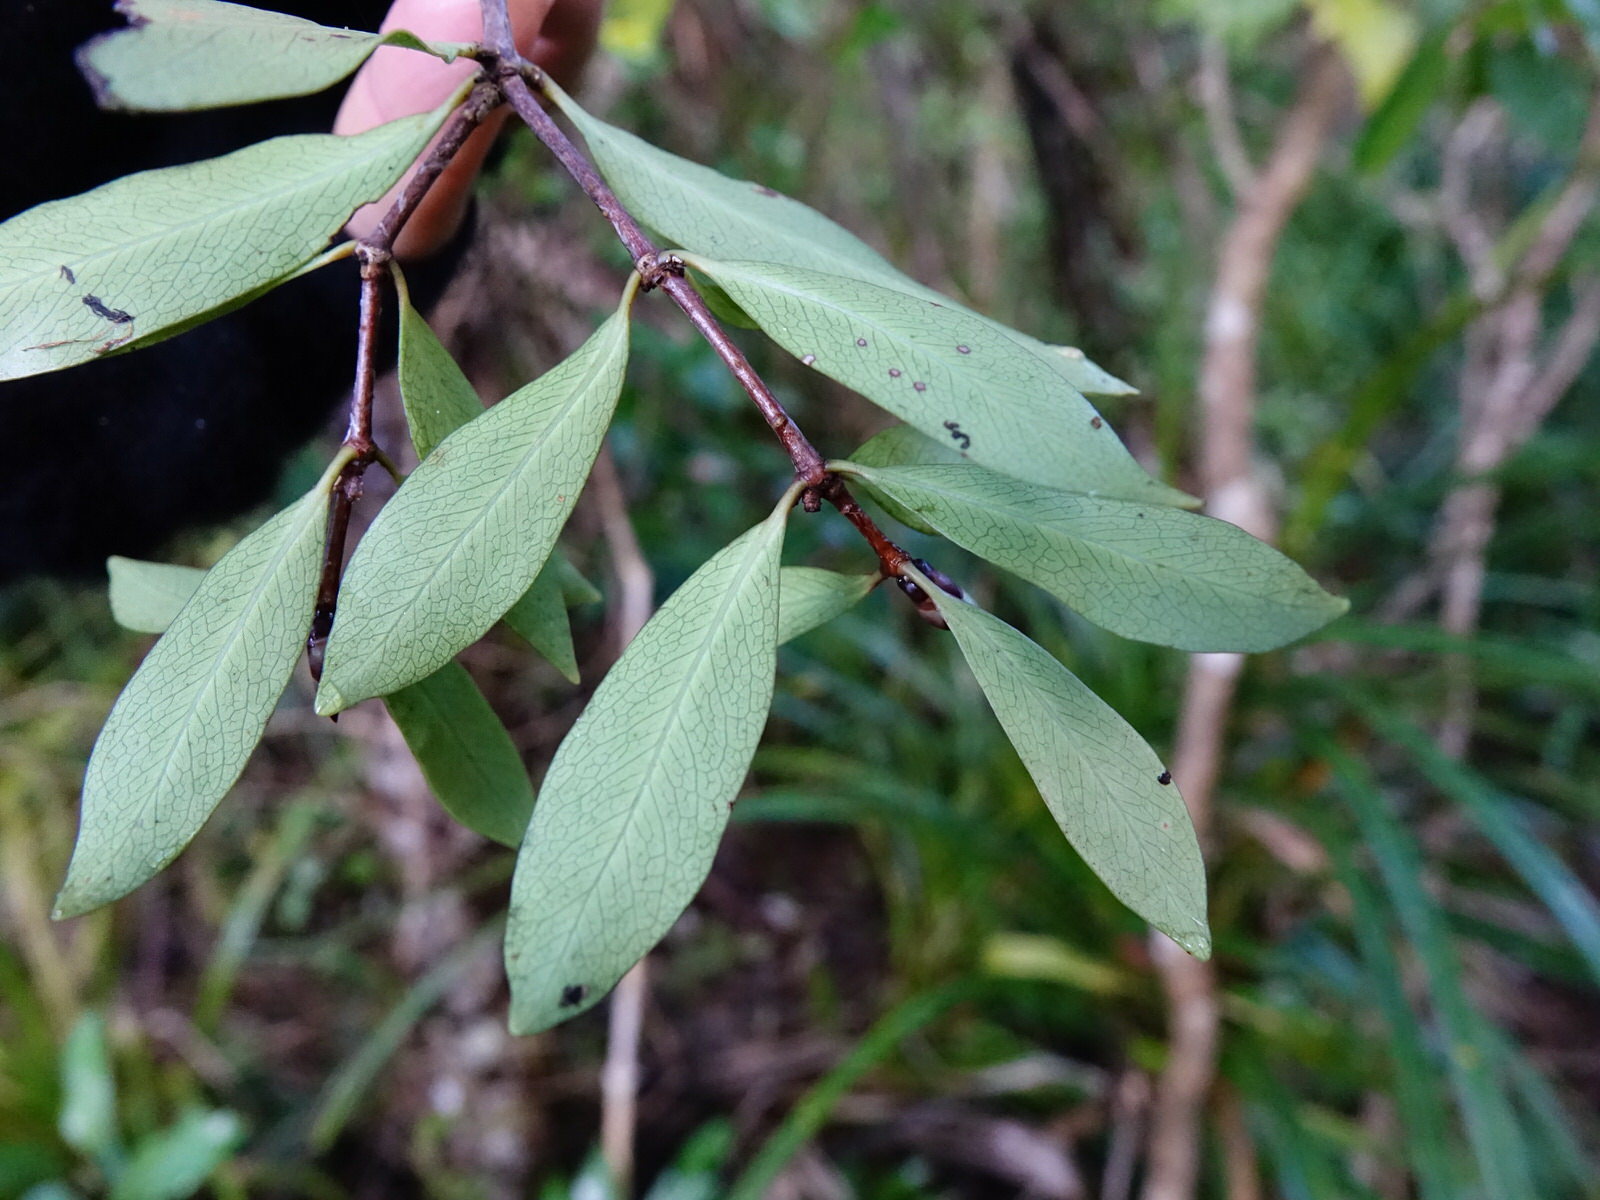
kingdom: Plantae
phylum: Tracheophyta
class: Magnoliopsida
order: Apiales
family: Pittosporaceae
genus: Pittosporum
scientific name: Pittosporum cornifolium
